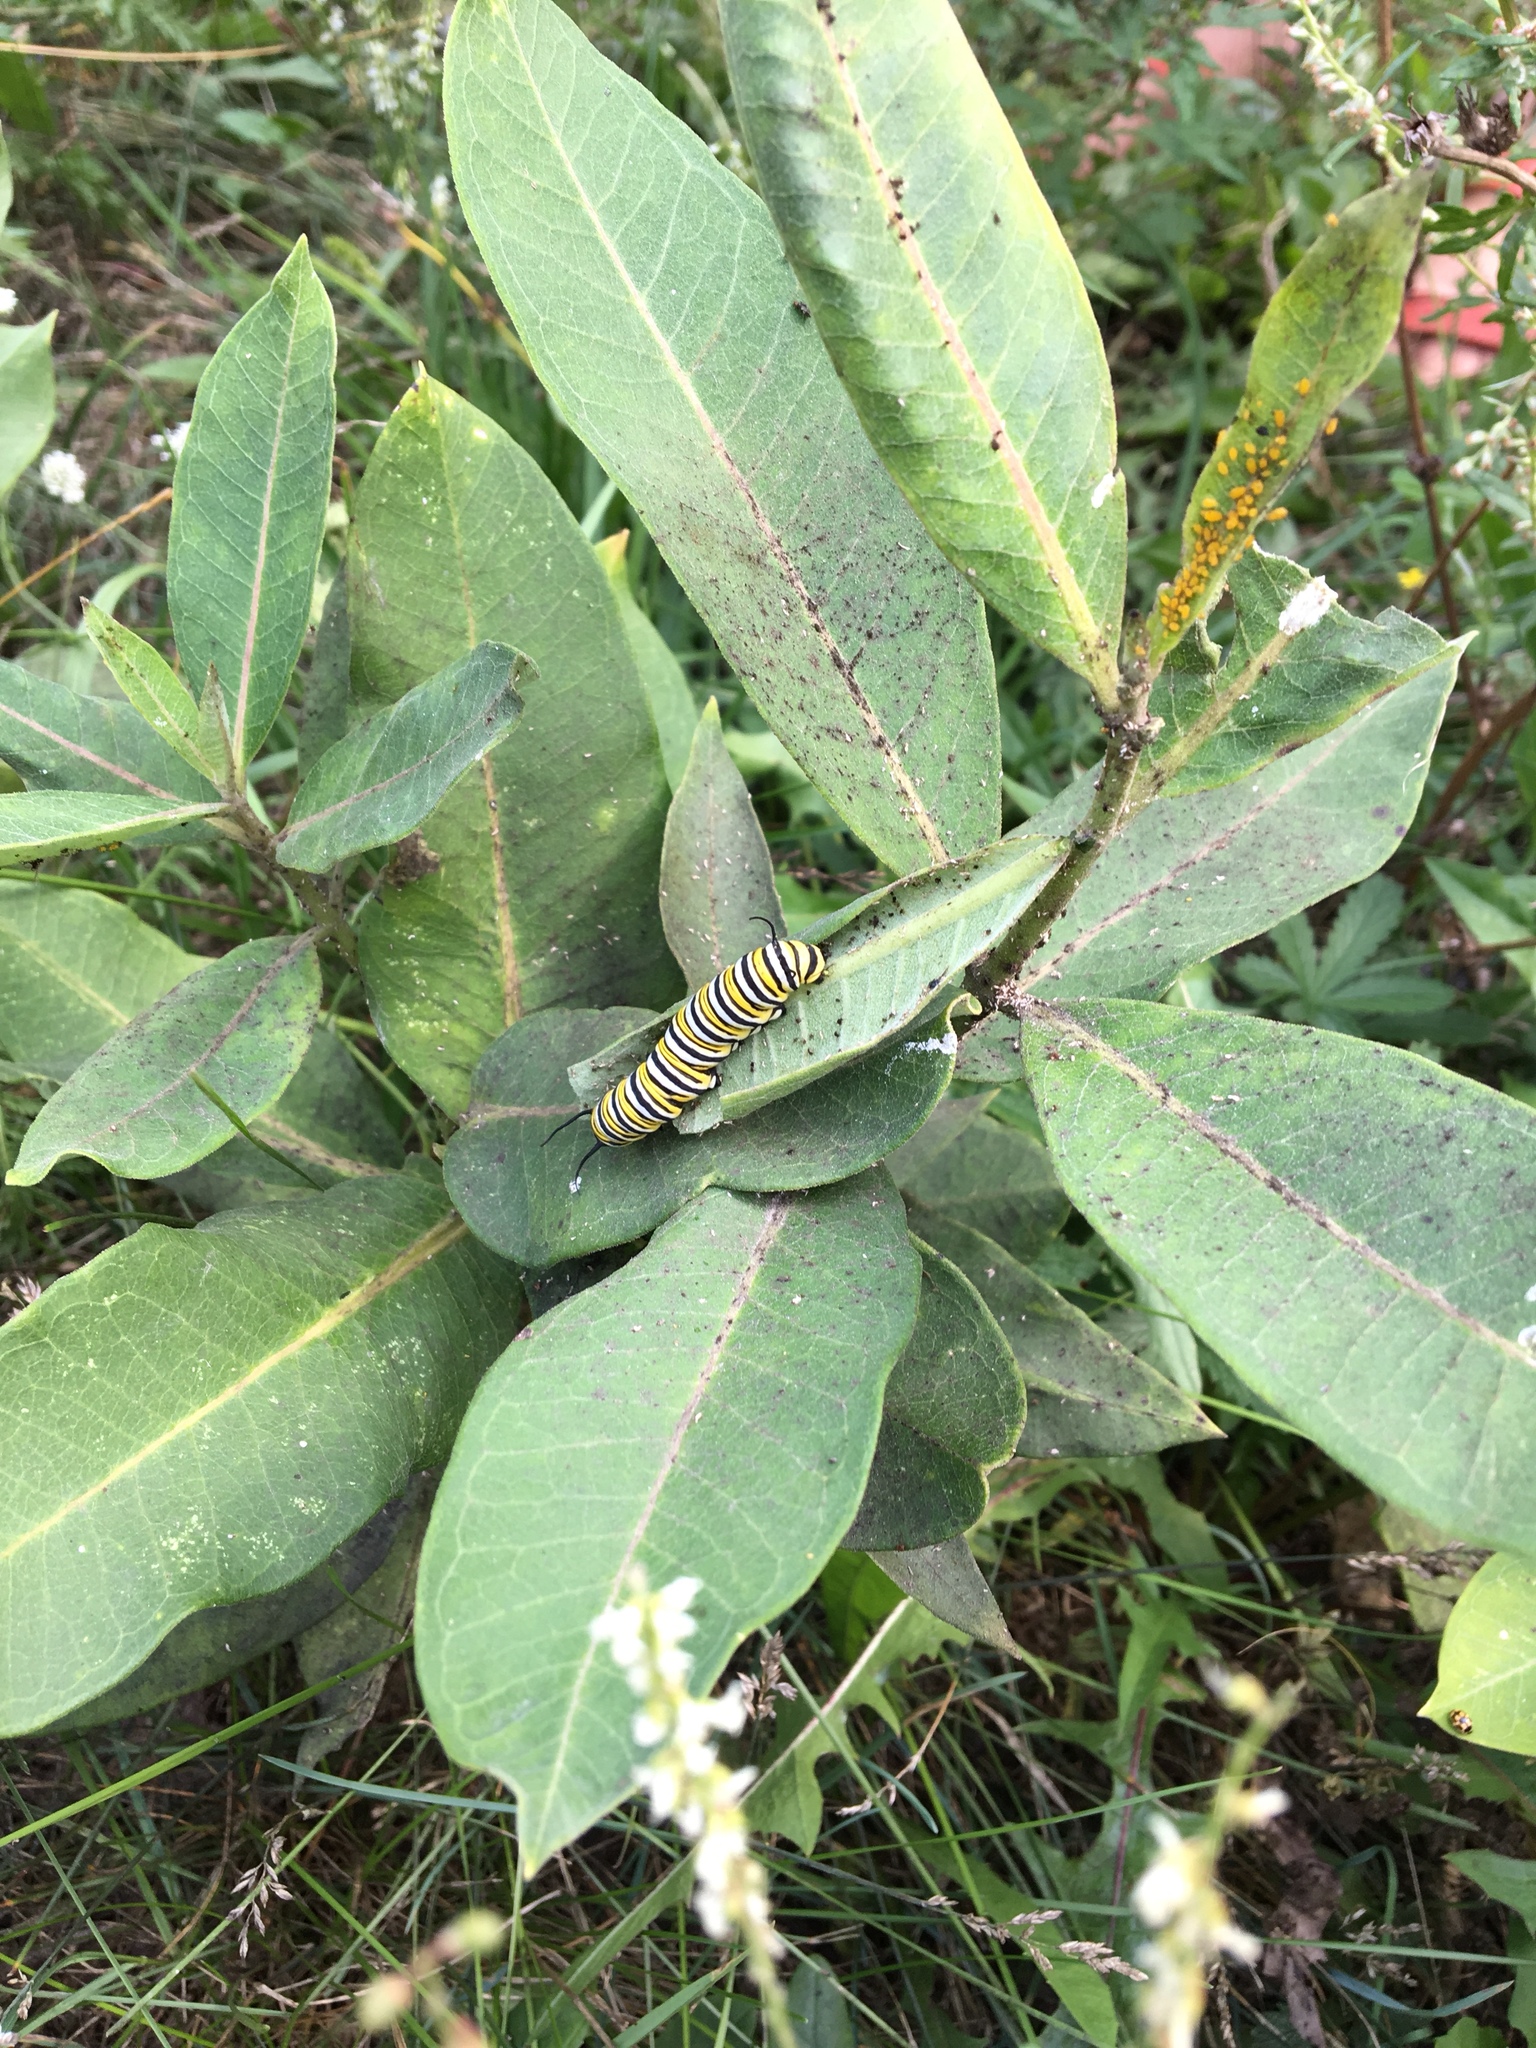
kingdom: Animalia
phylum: Arthropoda
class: Insecta
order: Lepidoptera
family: Nymphalidae
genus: Danaus
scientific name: Danaus plexippus
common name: Monarch
